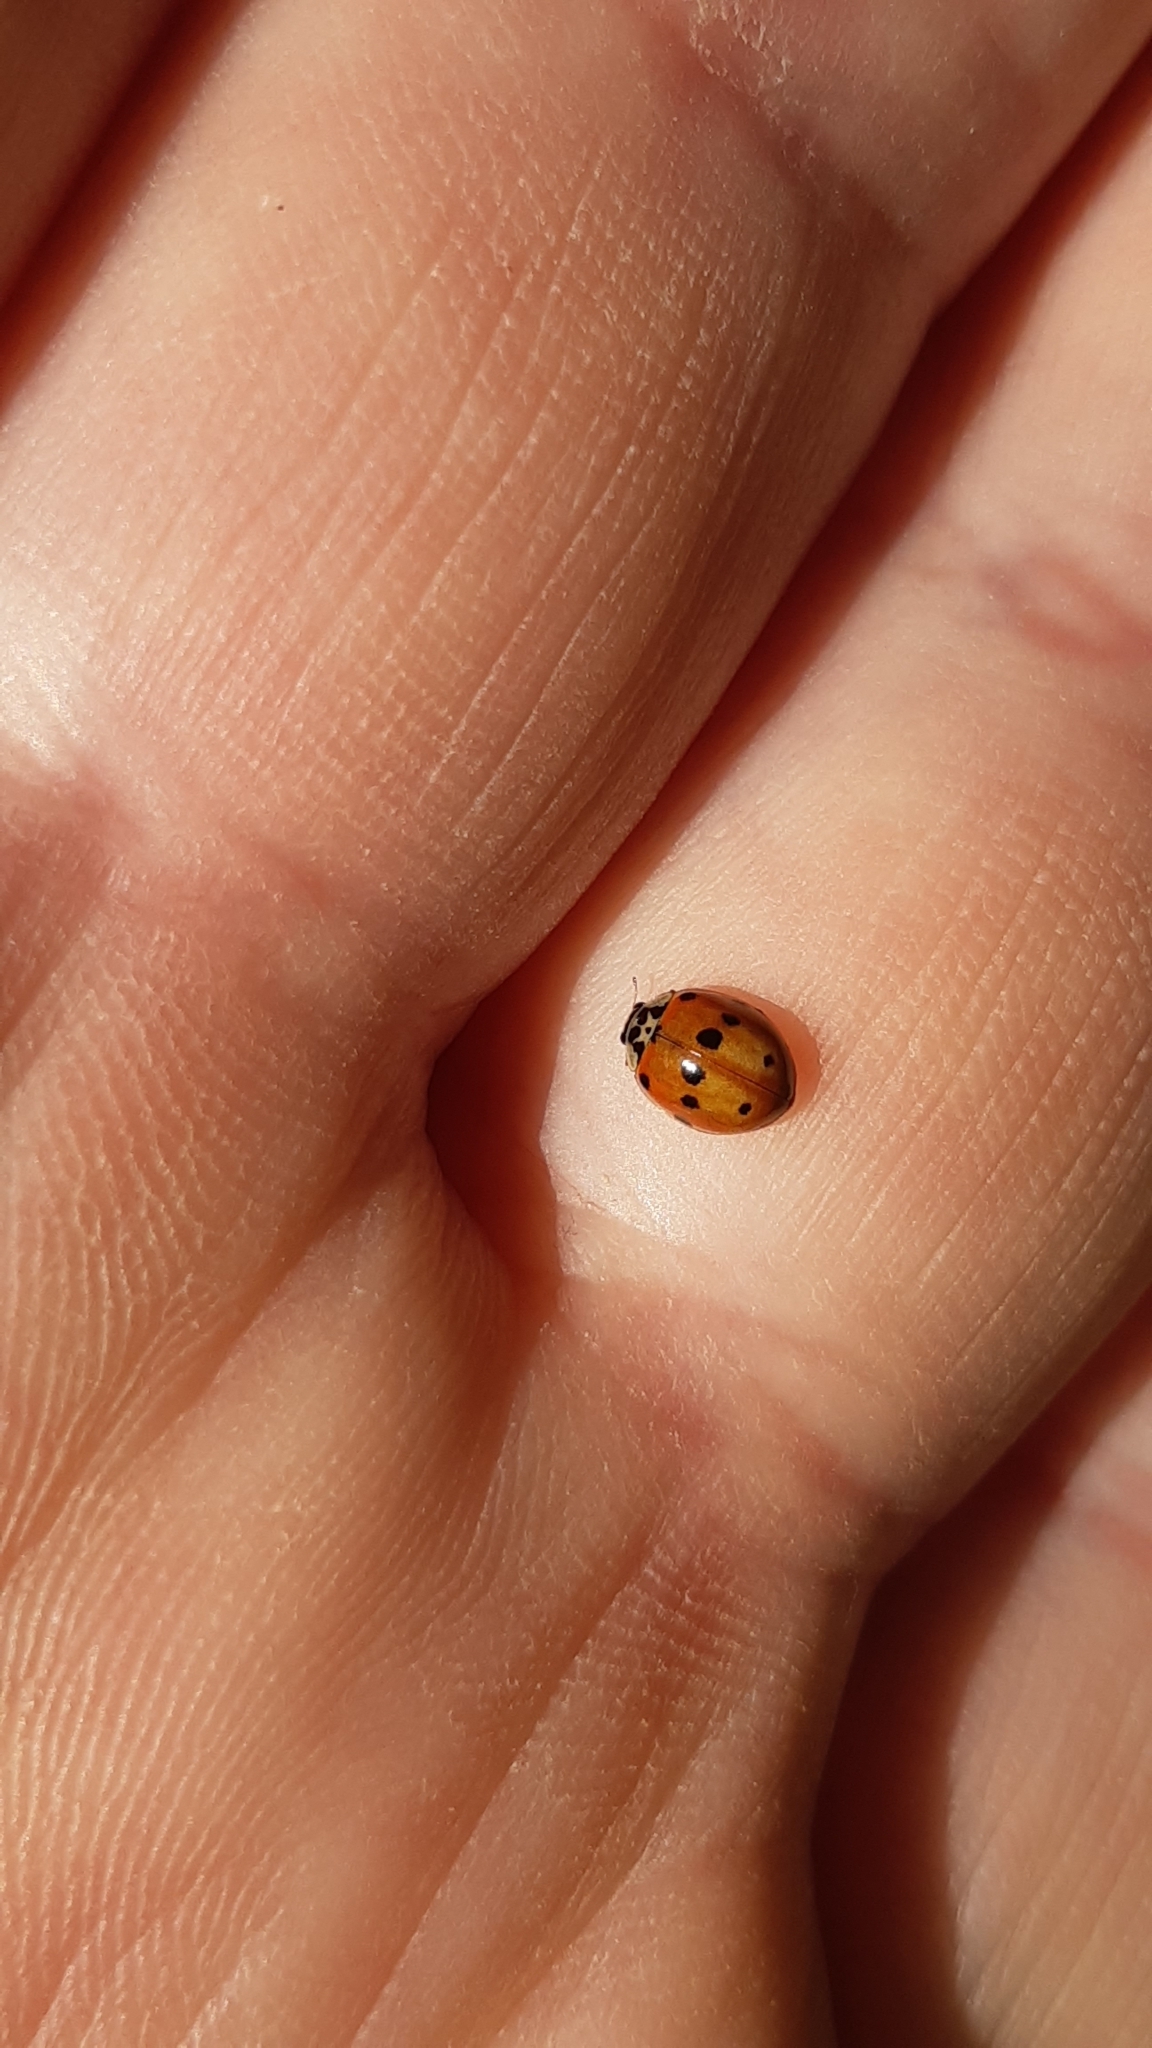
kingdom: Animalia
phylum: Arthropoda
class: Insecta
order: Coleoptera
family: Coccinellidae
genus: Adalia
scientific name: Adalia decempunctata
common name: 10-spot ladybird
